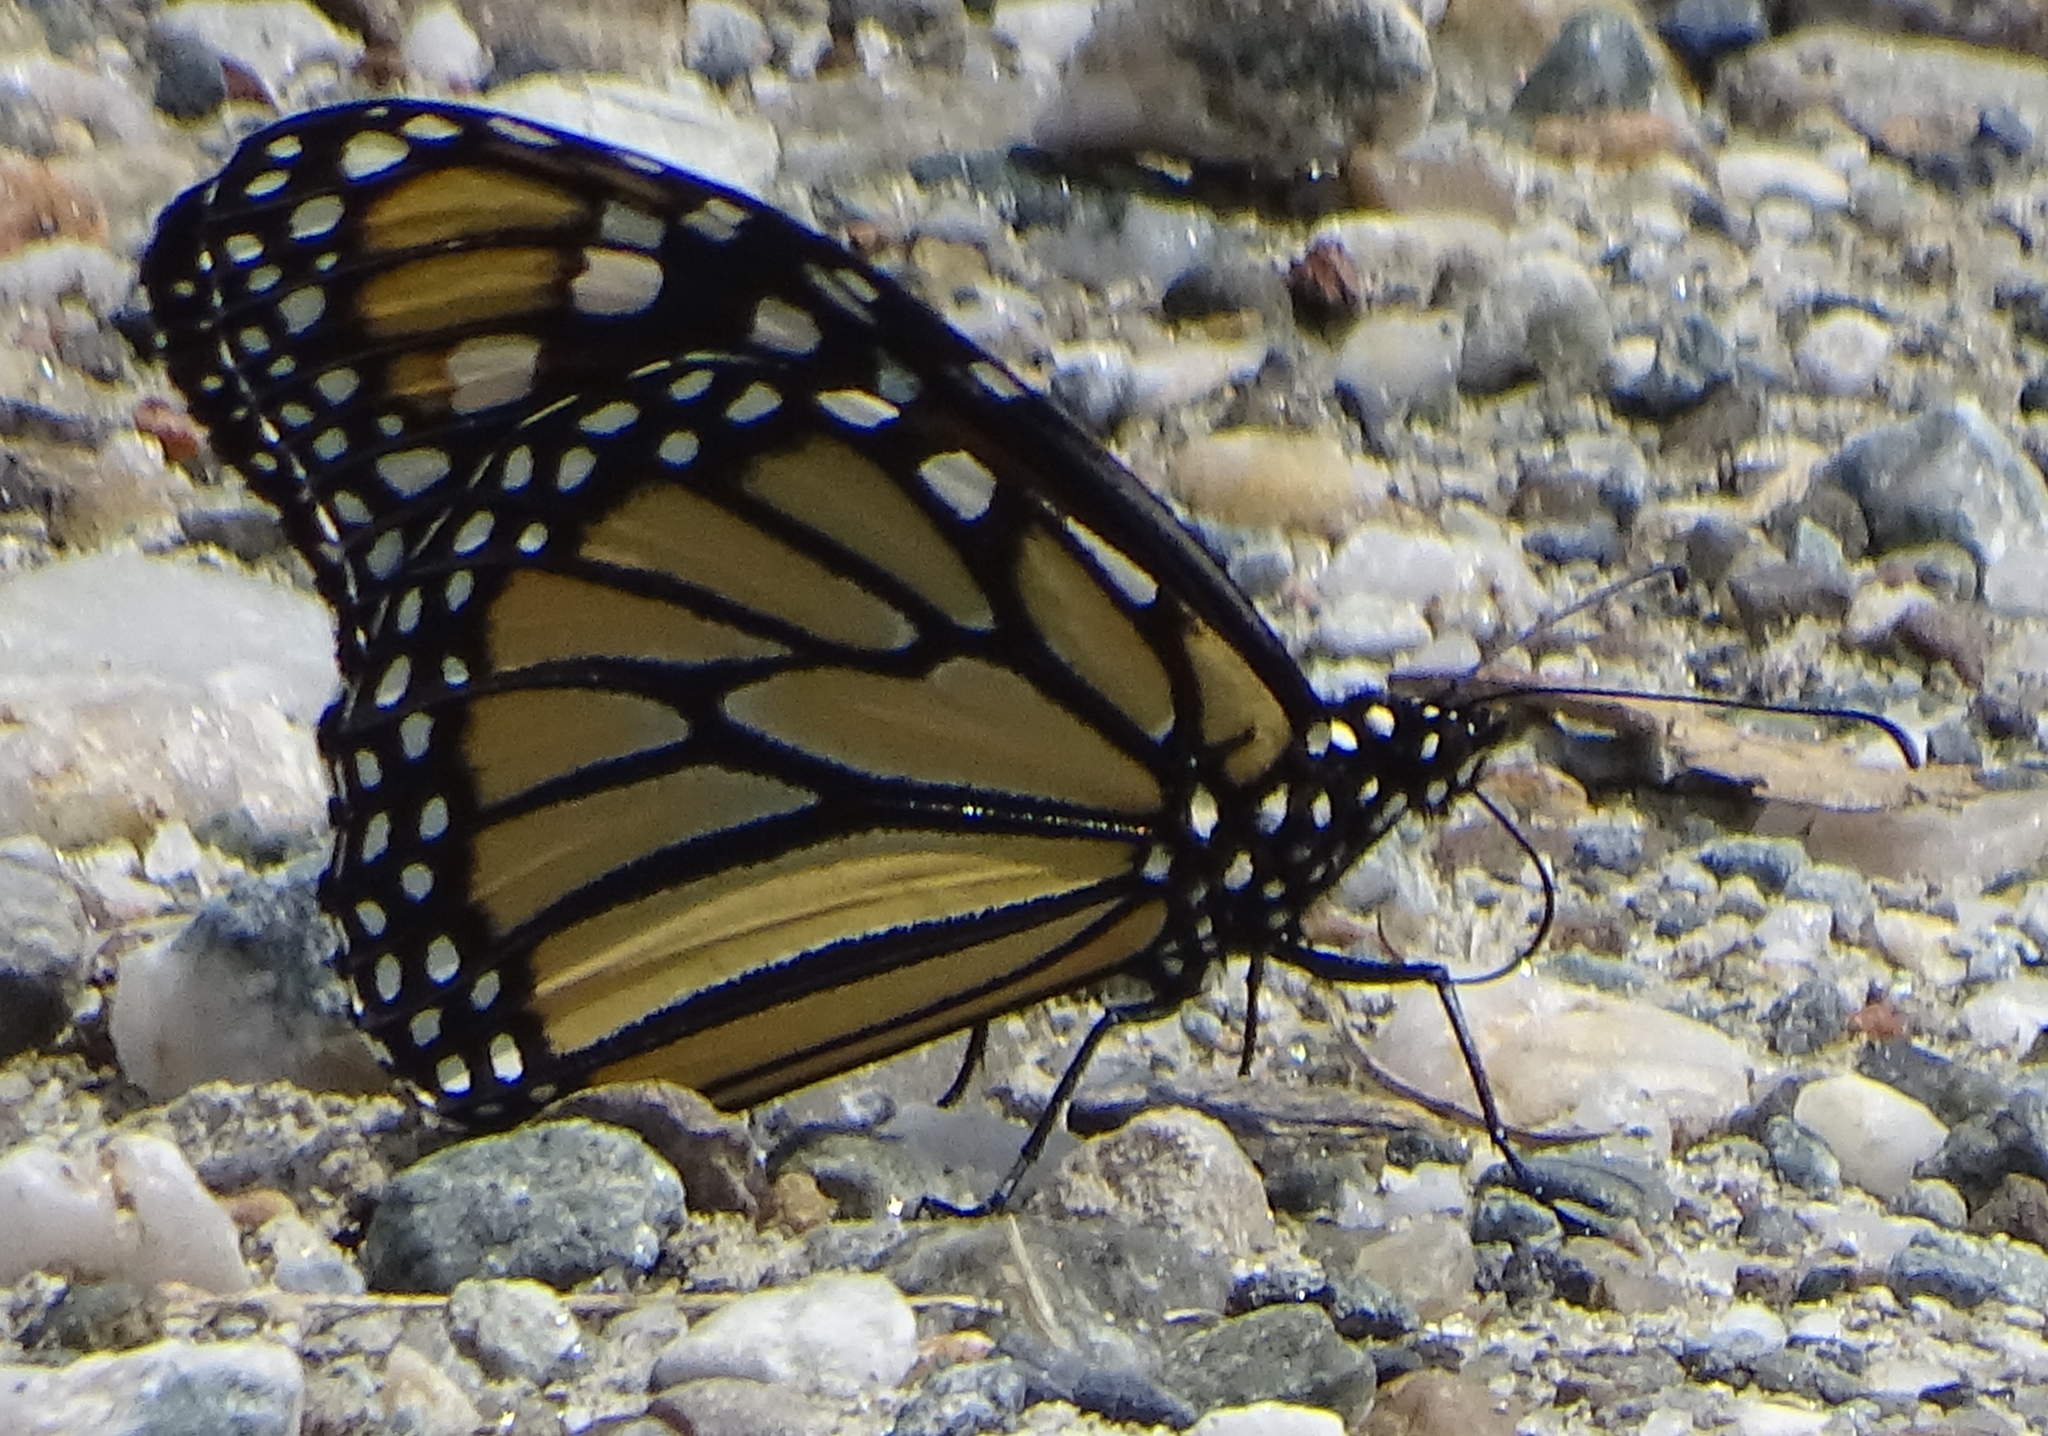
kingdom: Animalia
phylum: Arthropoda
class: Insecta
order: Lepidoptera
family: Nymphalidae
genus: Danaus
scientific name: Danaus plexippus
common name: Monarch
